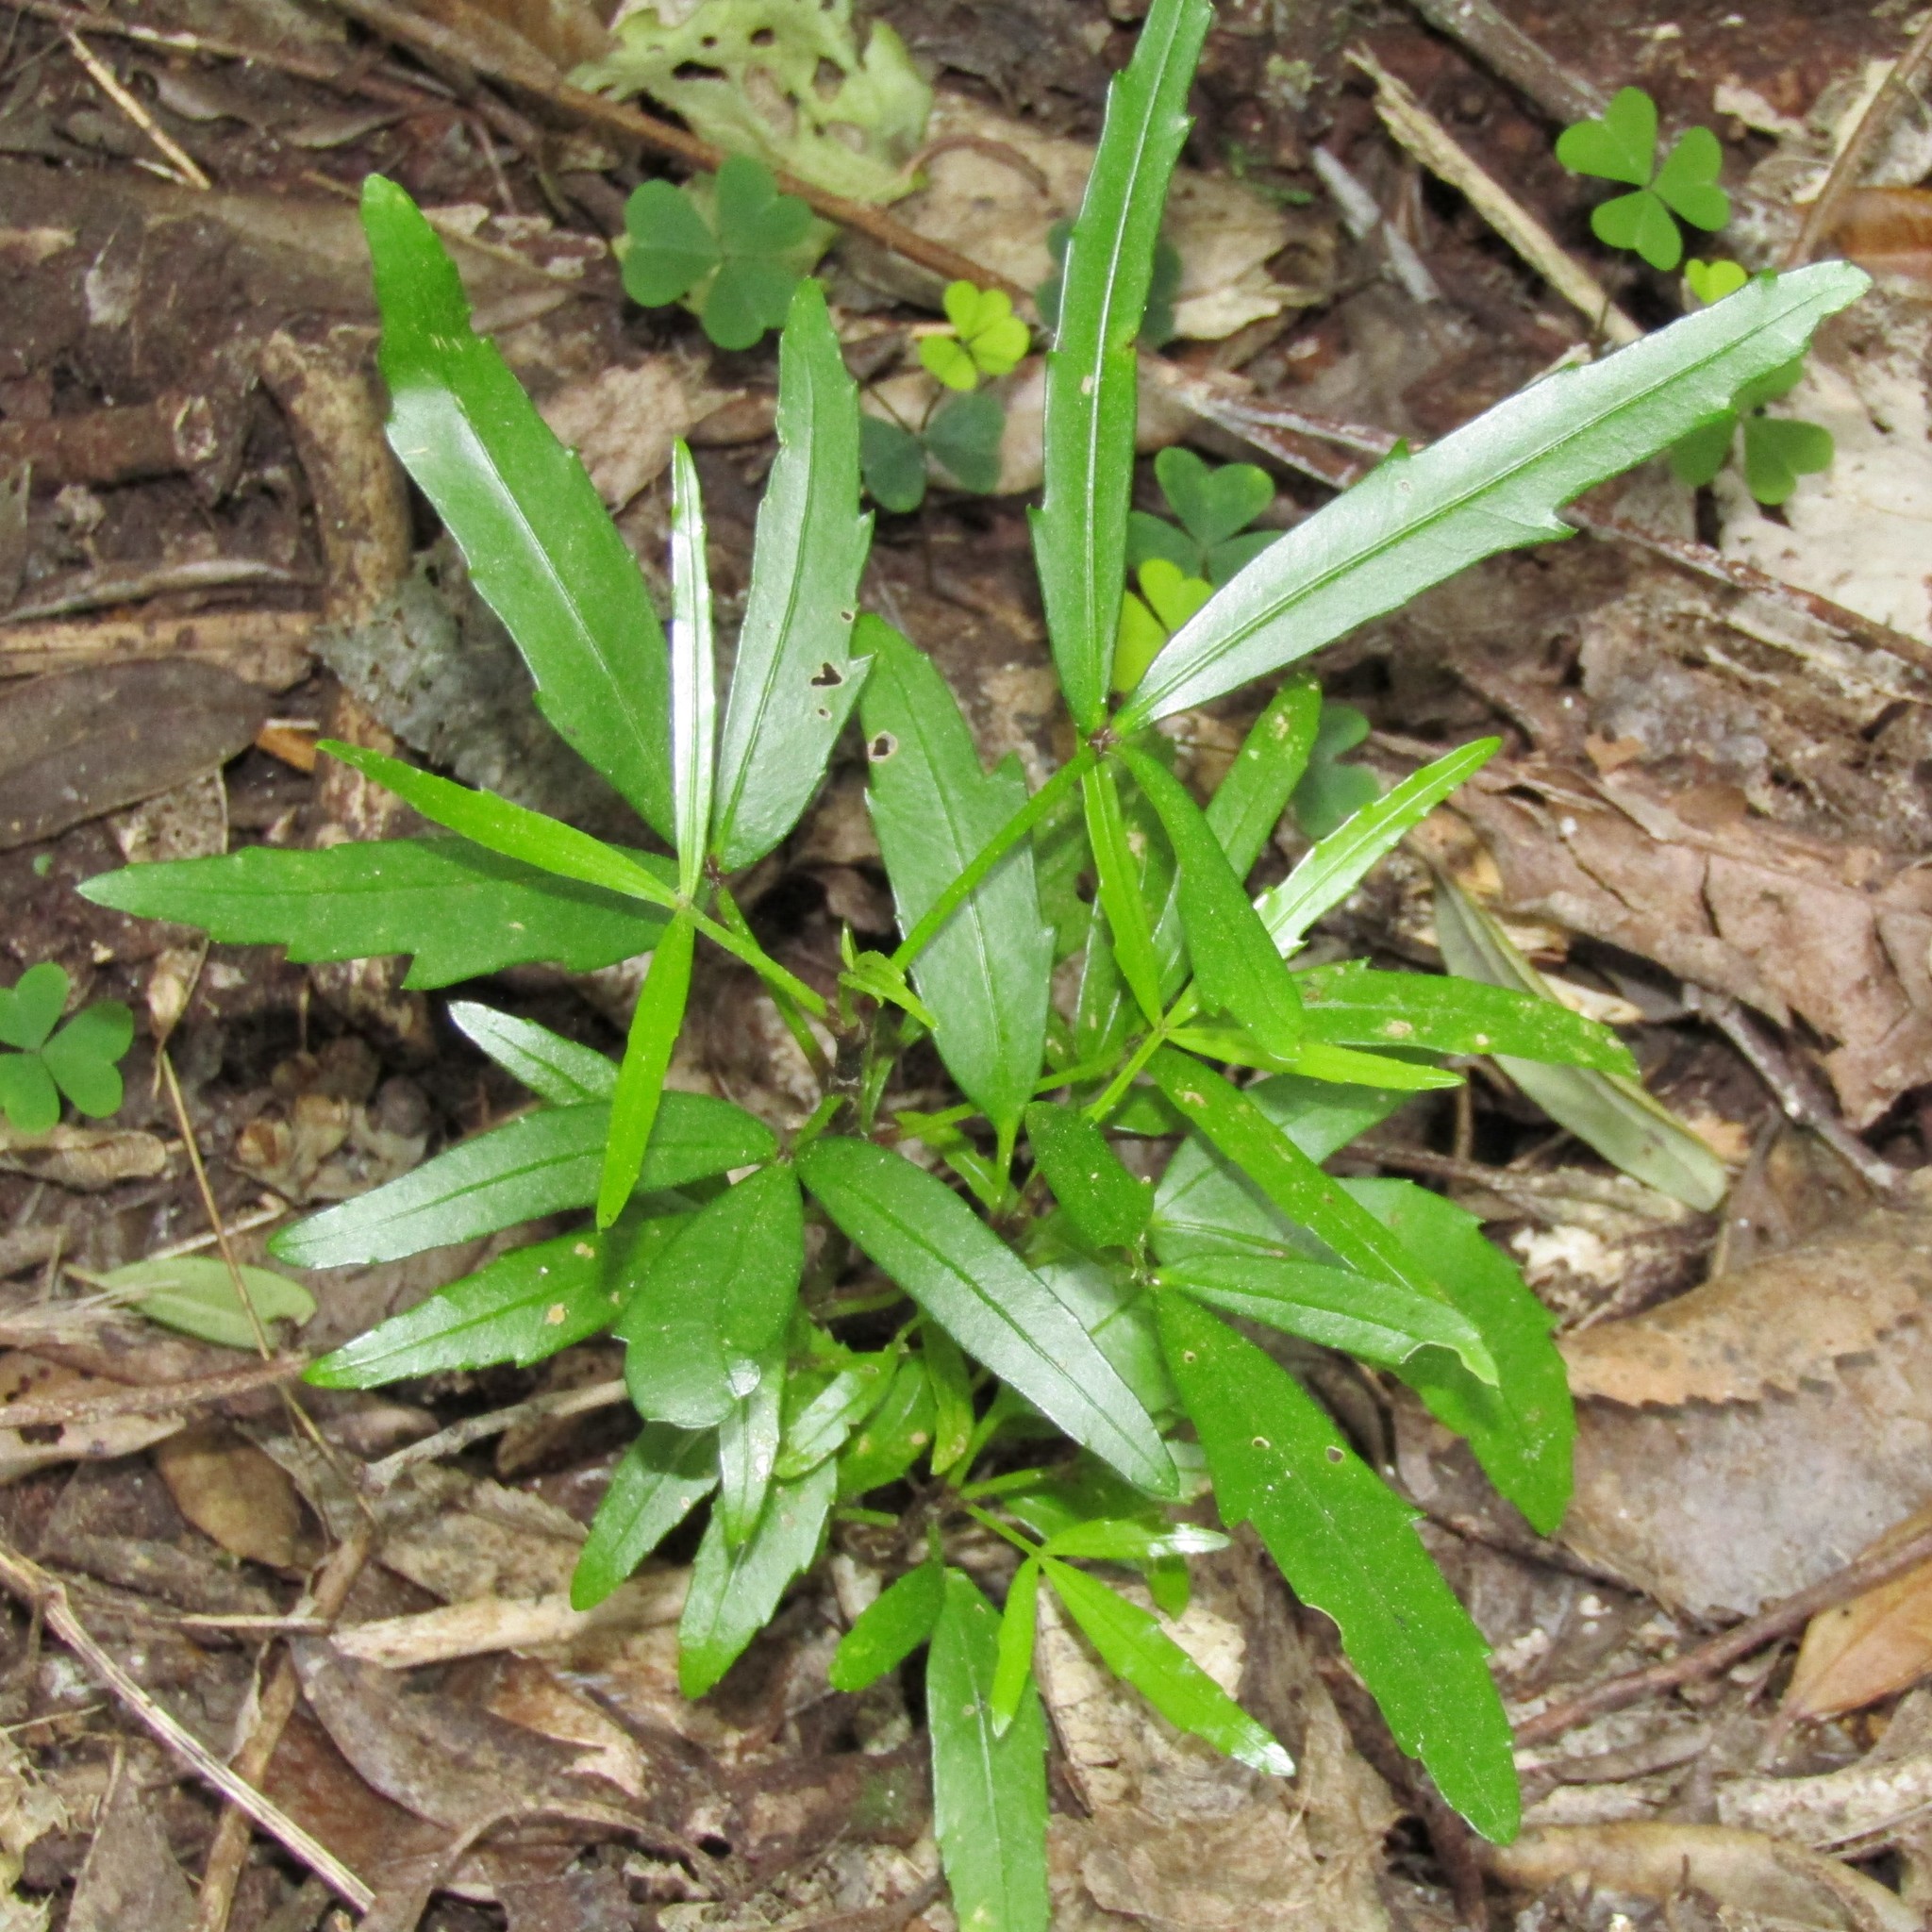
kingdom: Plantae
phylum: Tracheophyta
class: Magnoliopsida
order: Apiales
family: Araliaceae
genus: Pseudopanax
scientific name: Pseudopanax
